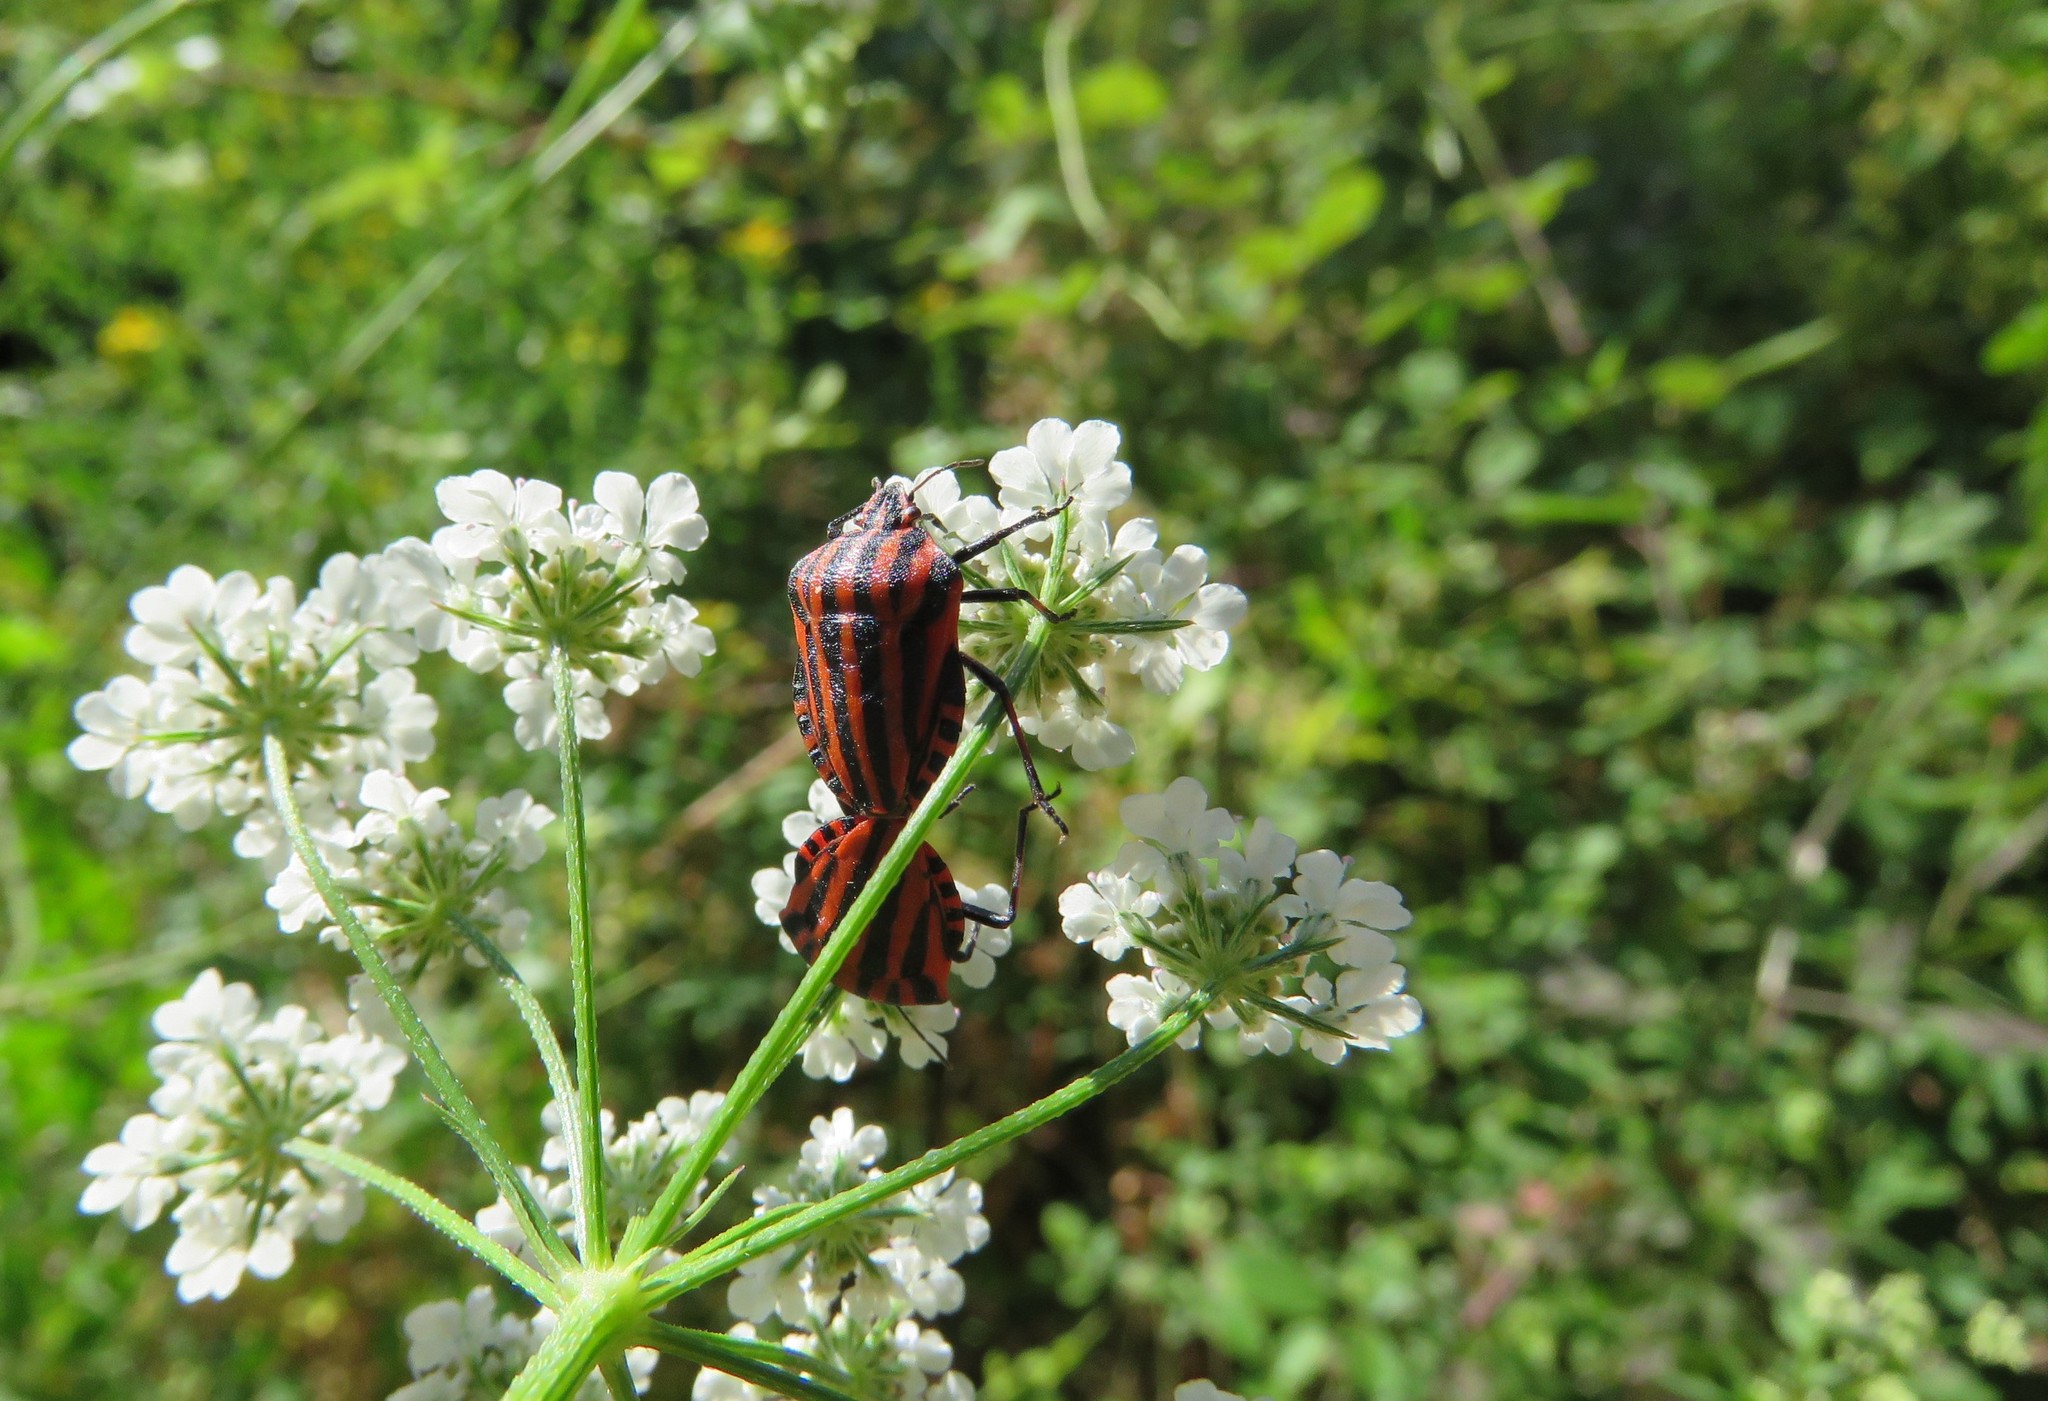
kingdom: Animalia
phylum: Arthropoda
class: Insecta
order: Hemiptera
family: Pentatomidae
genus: Graphosoma
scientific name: Graphosoma italicum
